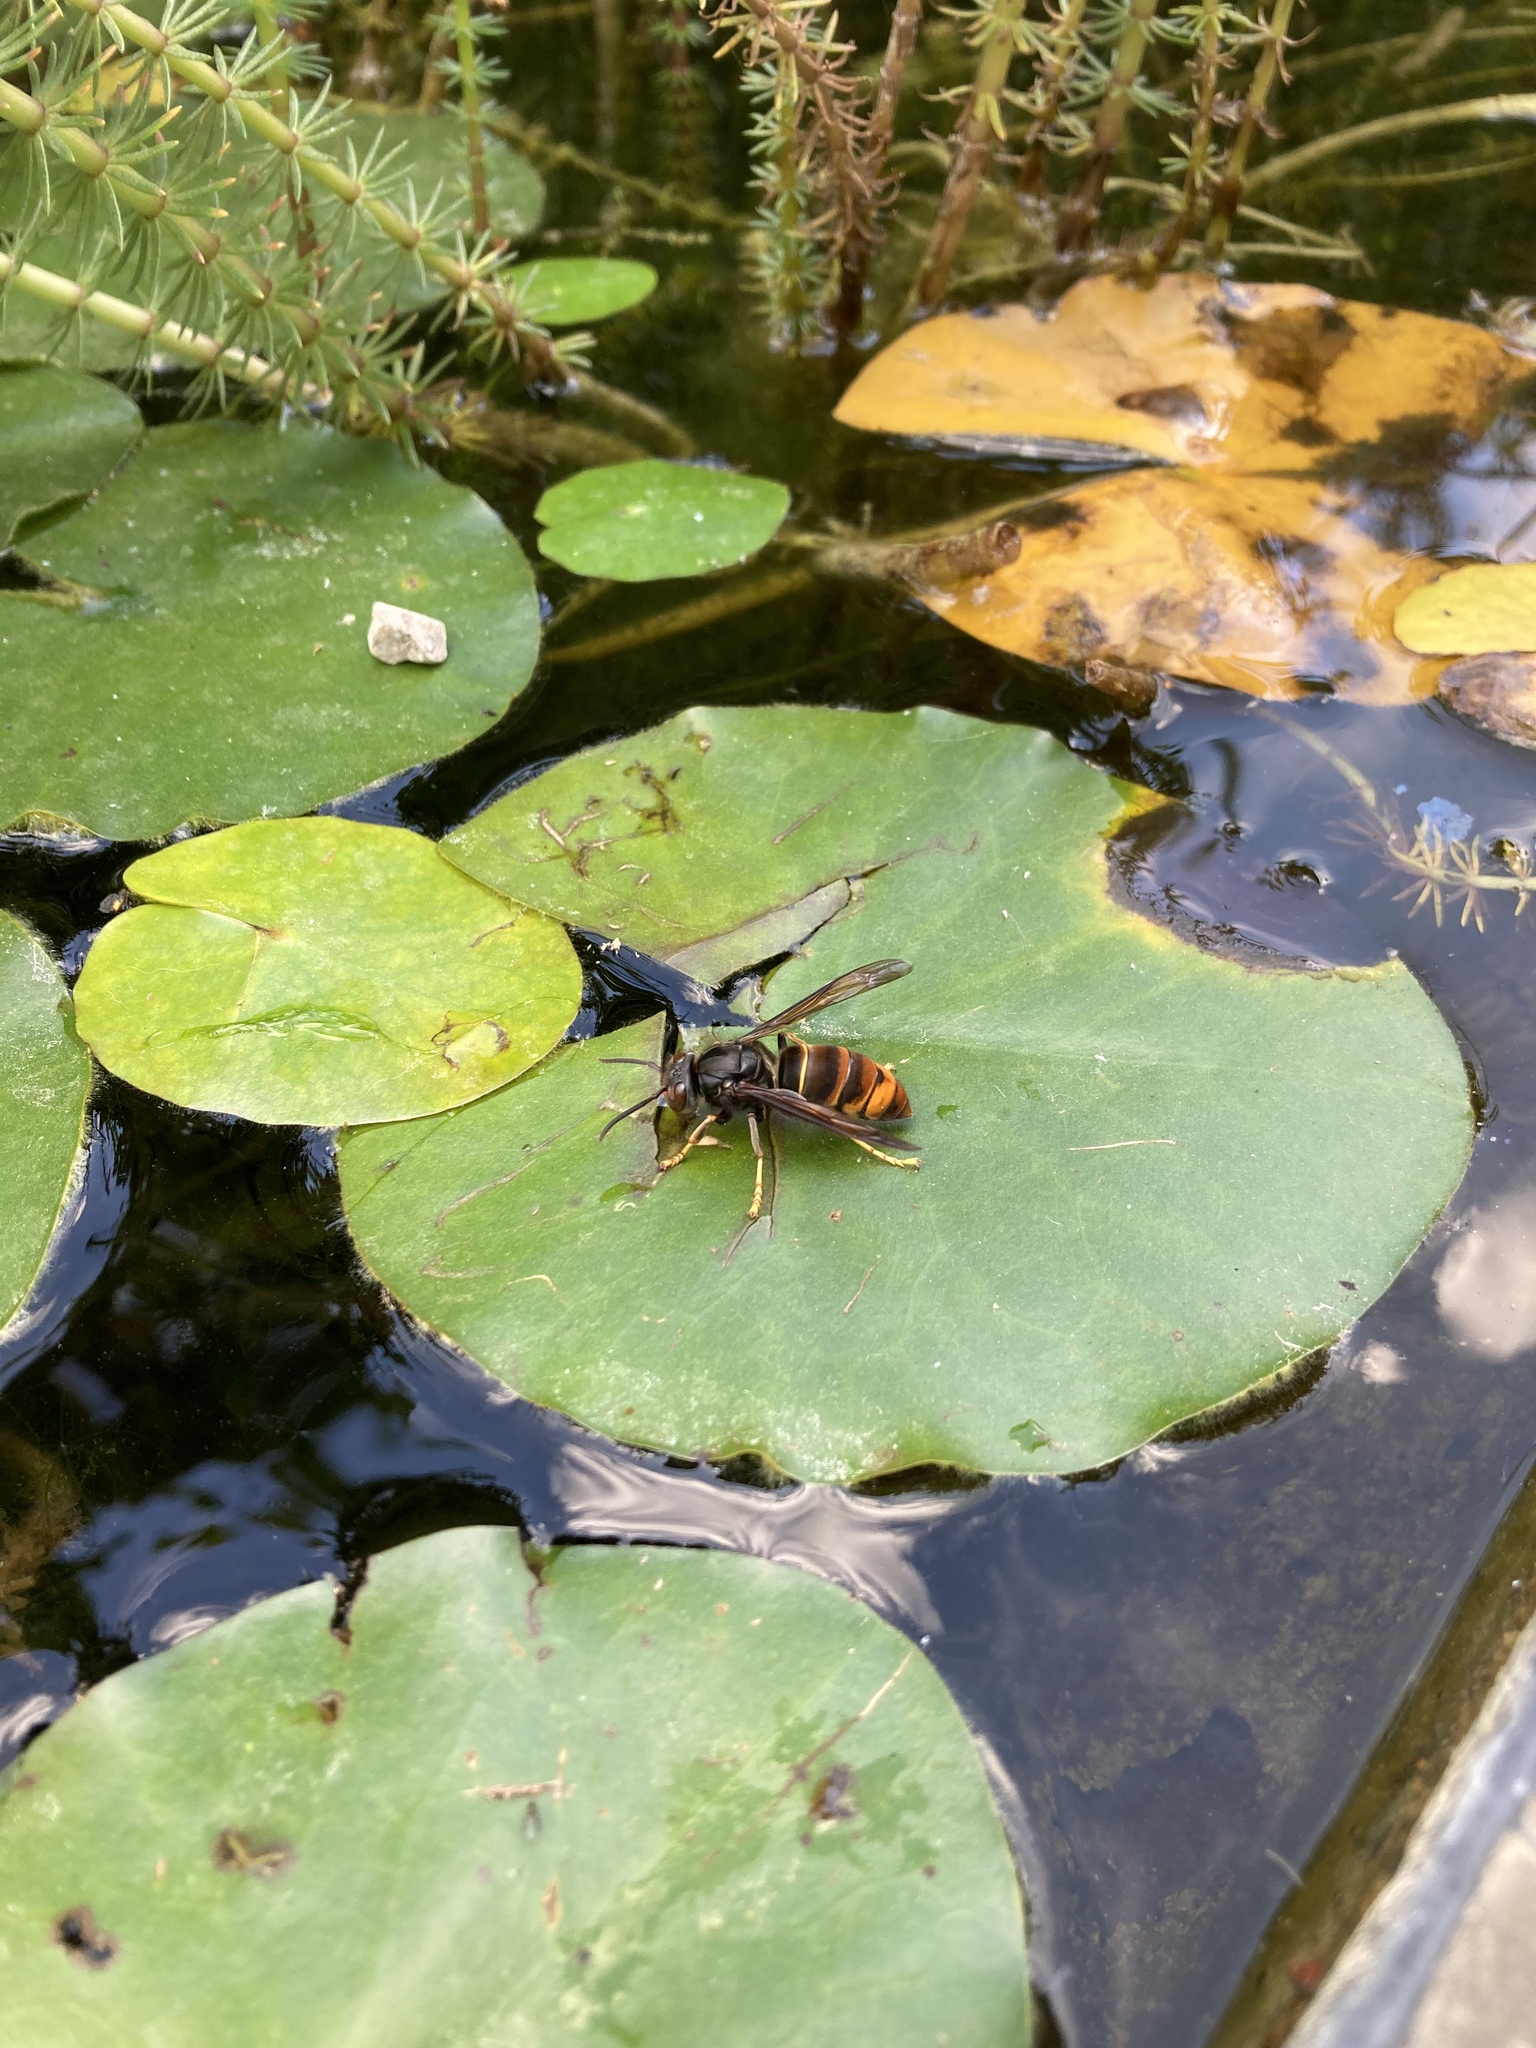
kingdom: Animalia
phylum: Arthropoda
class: Insecta
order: Hymenoptera
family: Vespidae
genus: Vespa
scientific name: Vespa velutina
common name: Asian hornet
